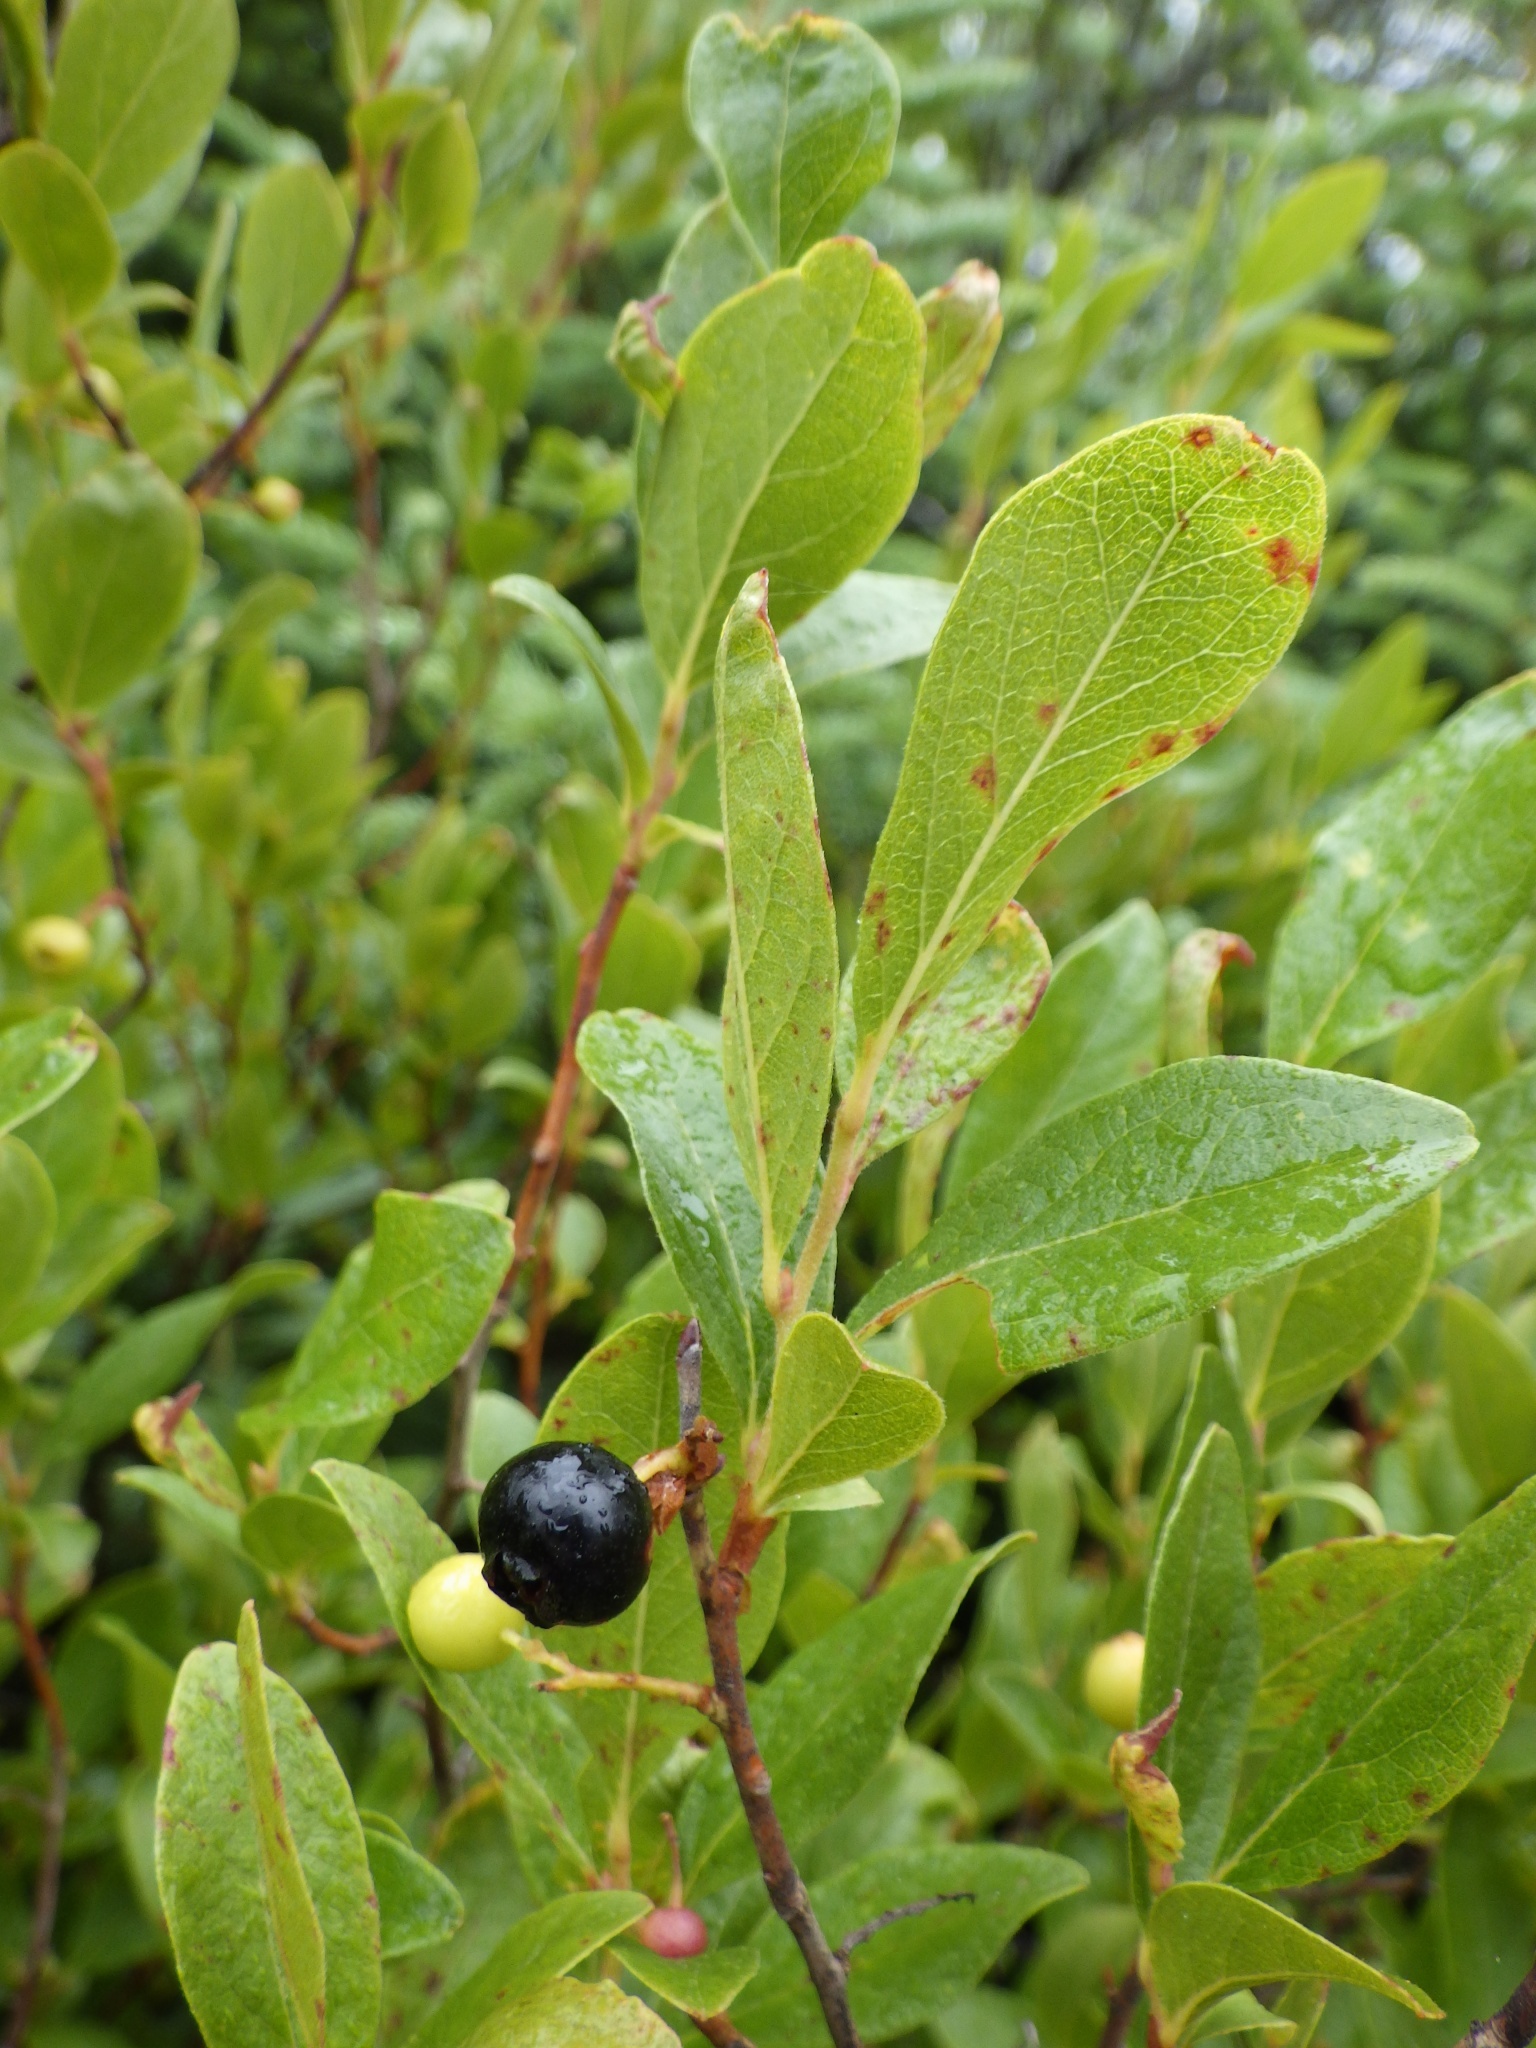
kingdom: Plantae
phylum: Tracheophyta
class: Magnoliopsida
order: Ericales
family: Ericaceae
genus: Gaylussacia
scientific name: Gaylussacia baccata
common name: Black huckleberry
